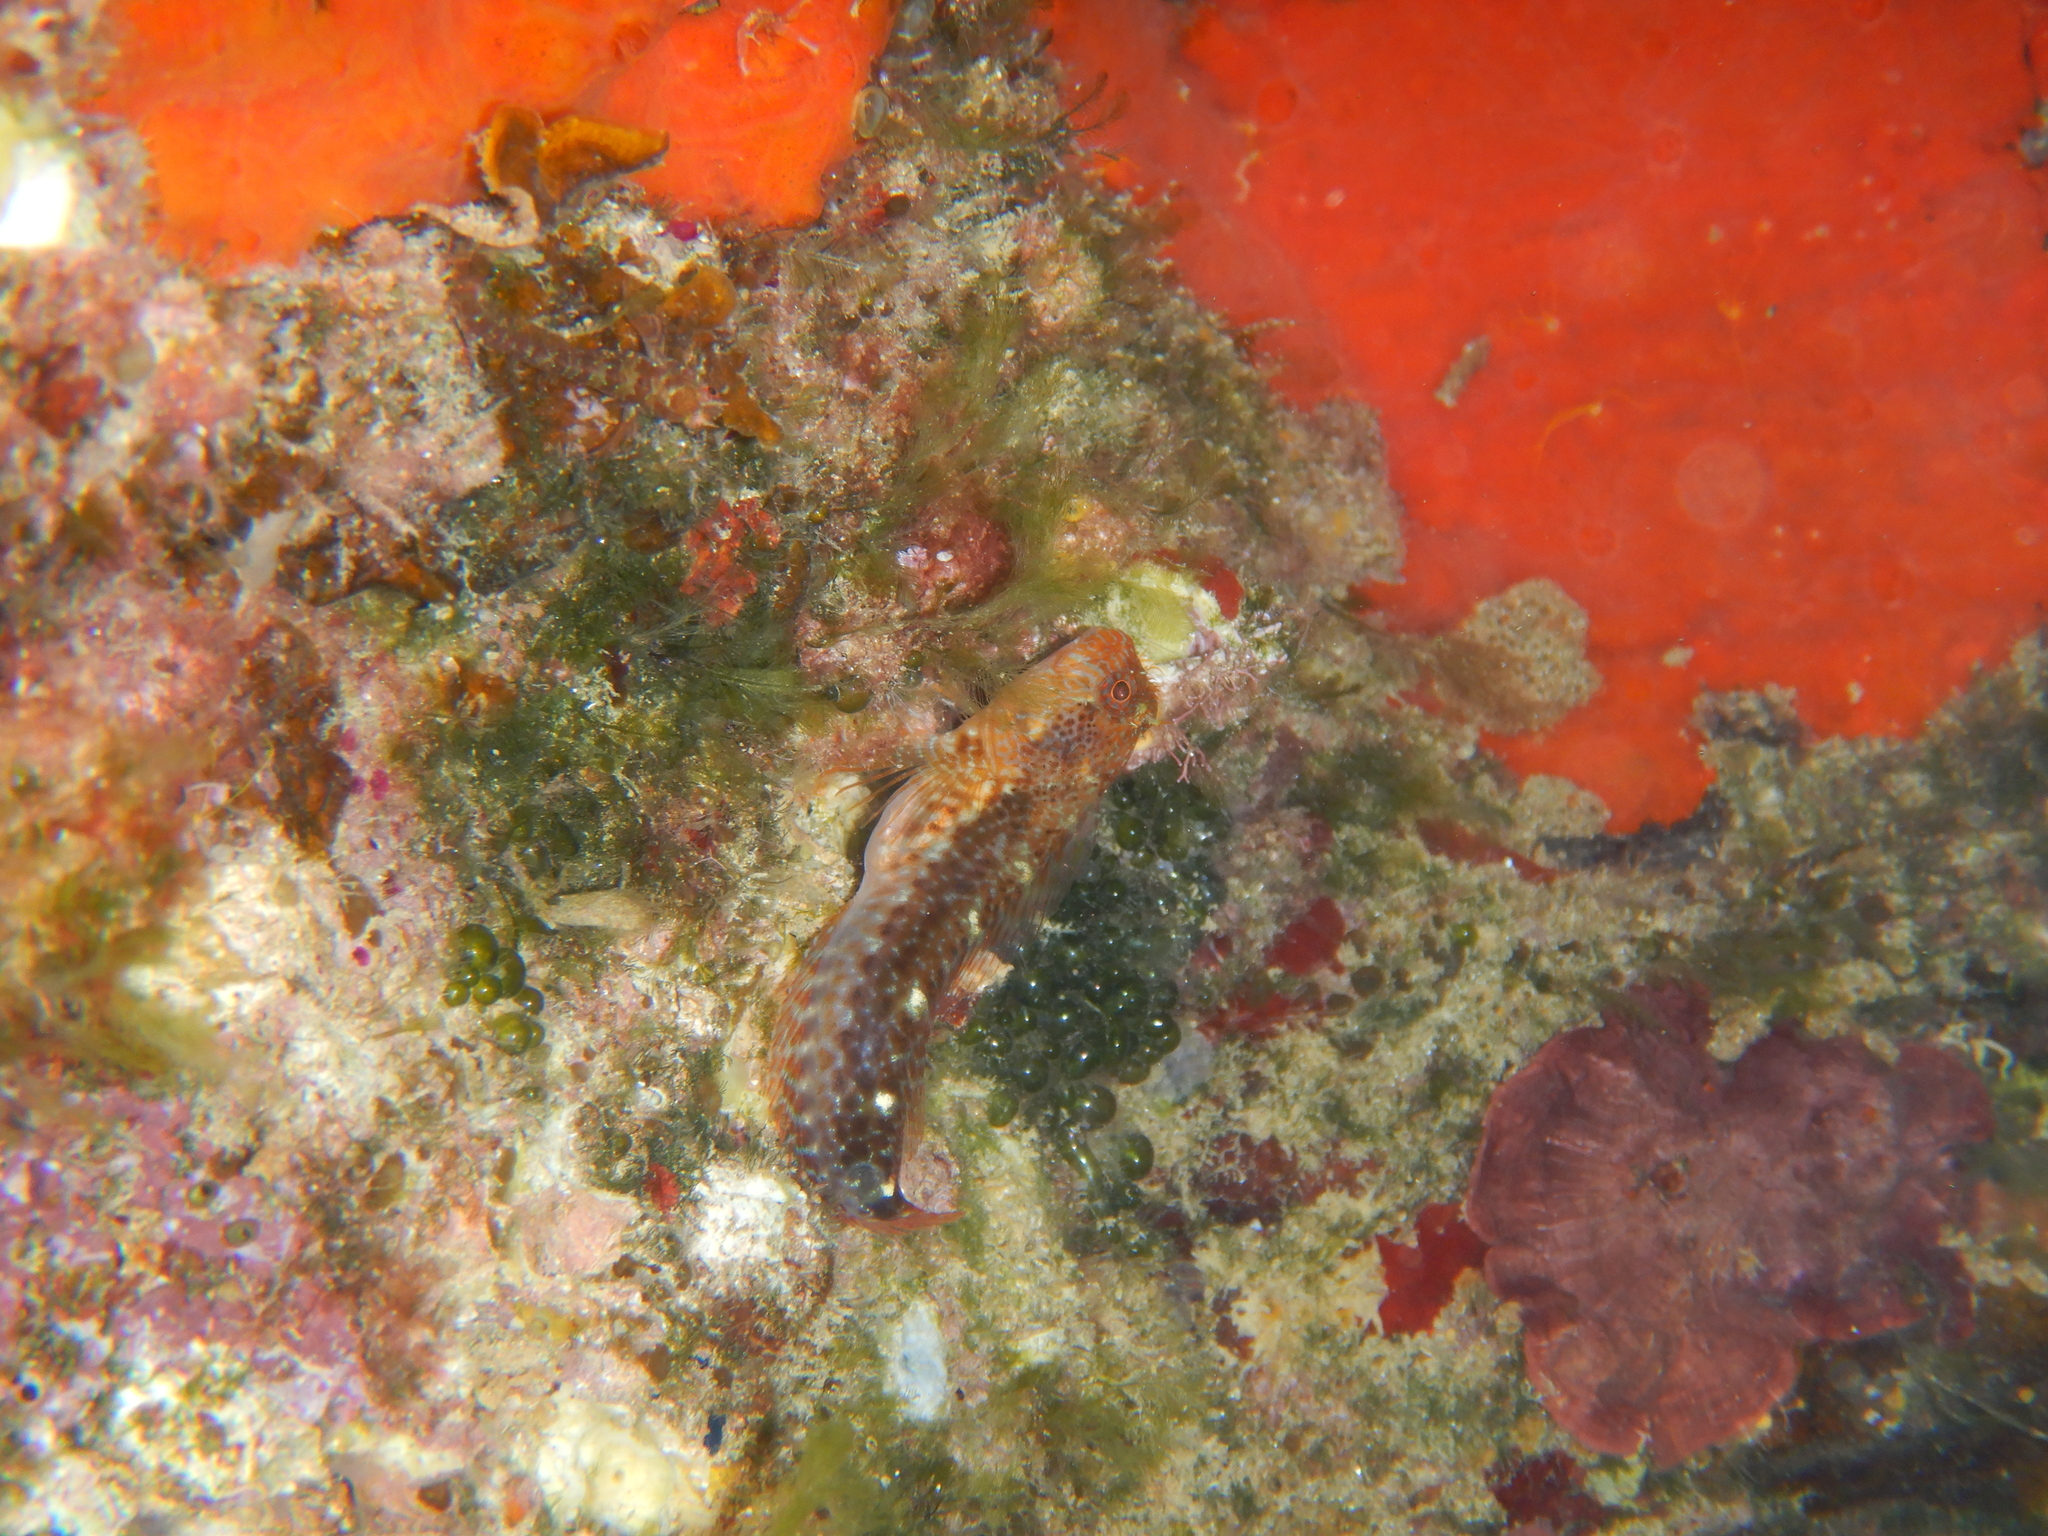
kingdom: Animalia
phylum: Chordata
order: Perciformes
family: Blenniidae
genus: Parablennius
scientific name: Parablennius zvonimiri
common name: Red blenny
